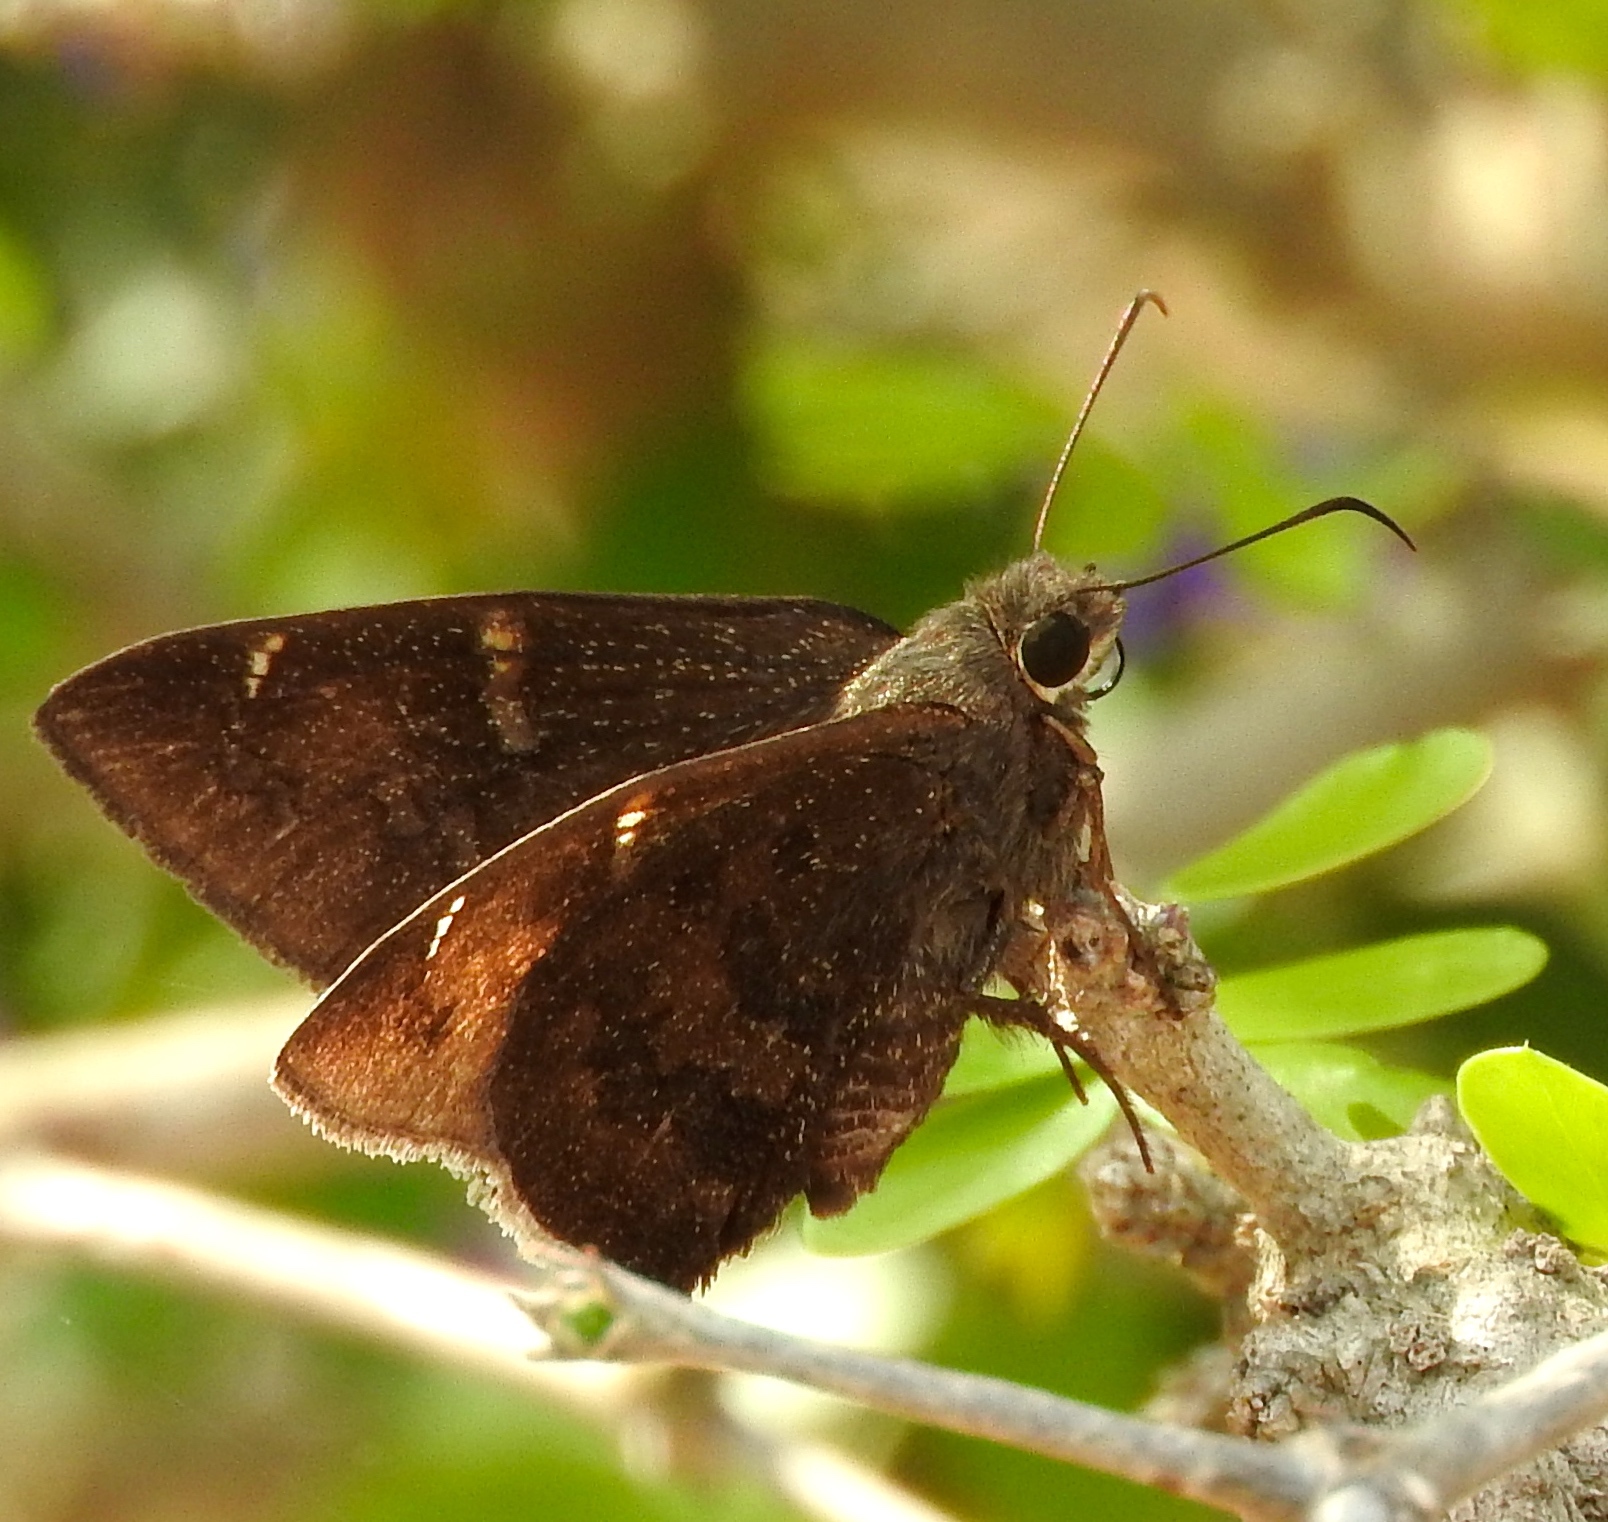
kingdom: Animalia
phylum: Arthropoda
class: Insecta
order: Lepidoptera
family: Hesperiidae
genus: Achalarus
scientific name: Achalarus Murgaria albociliatus
